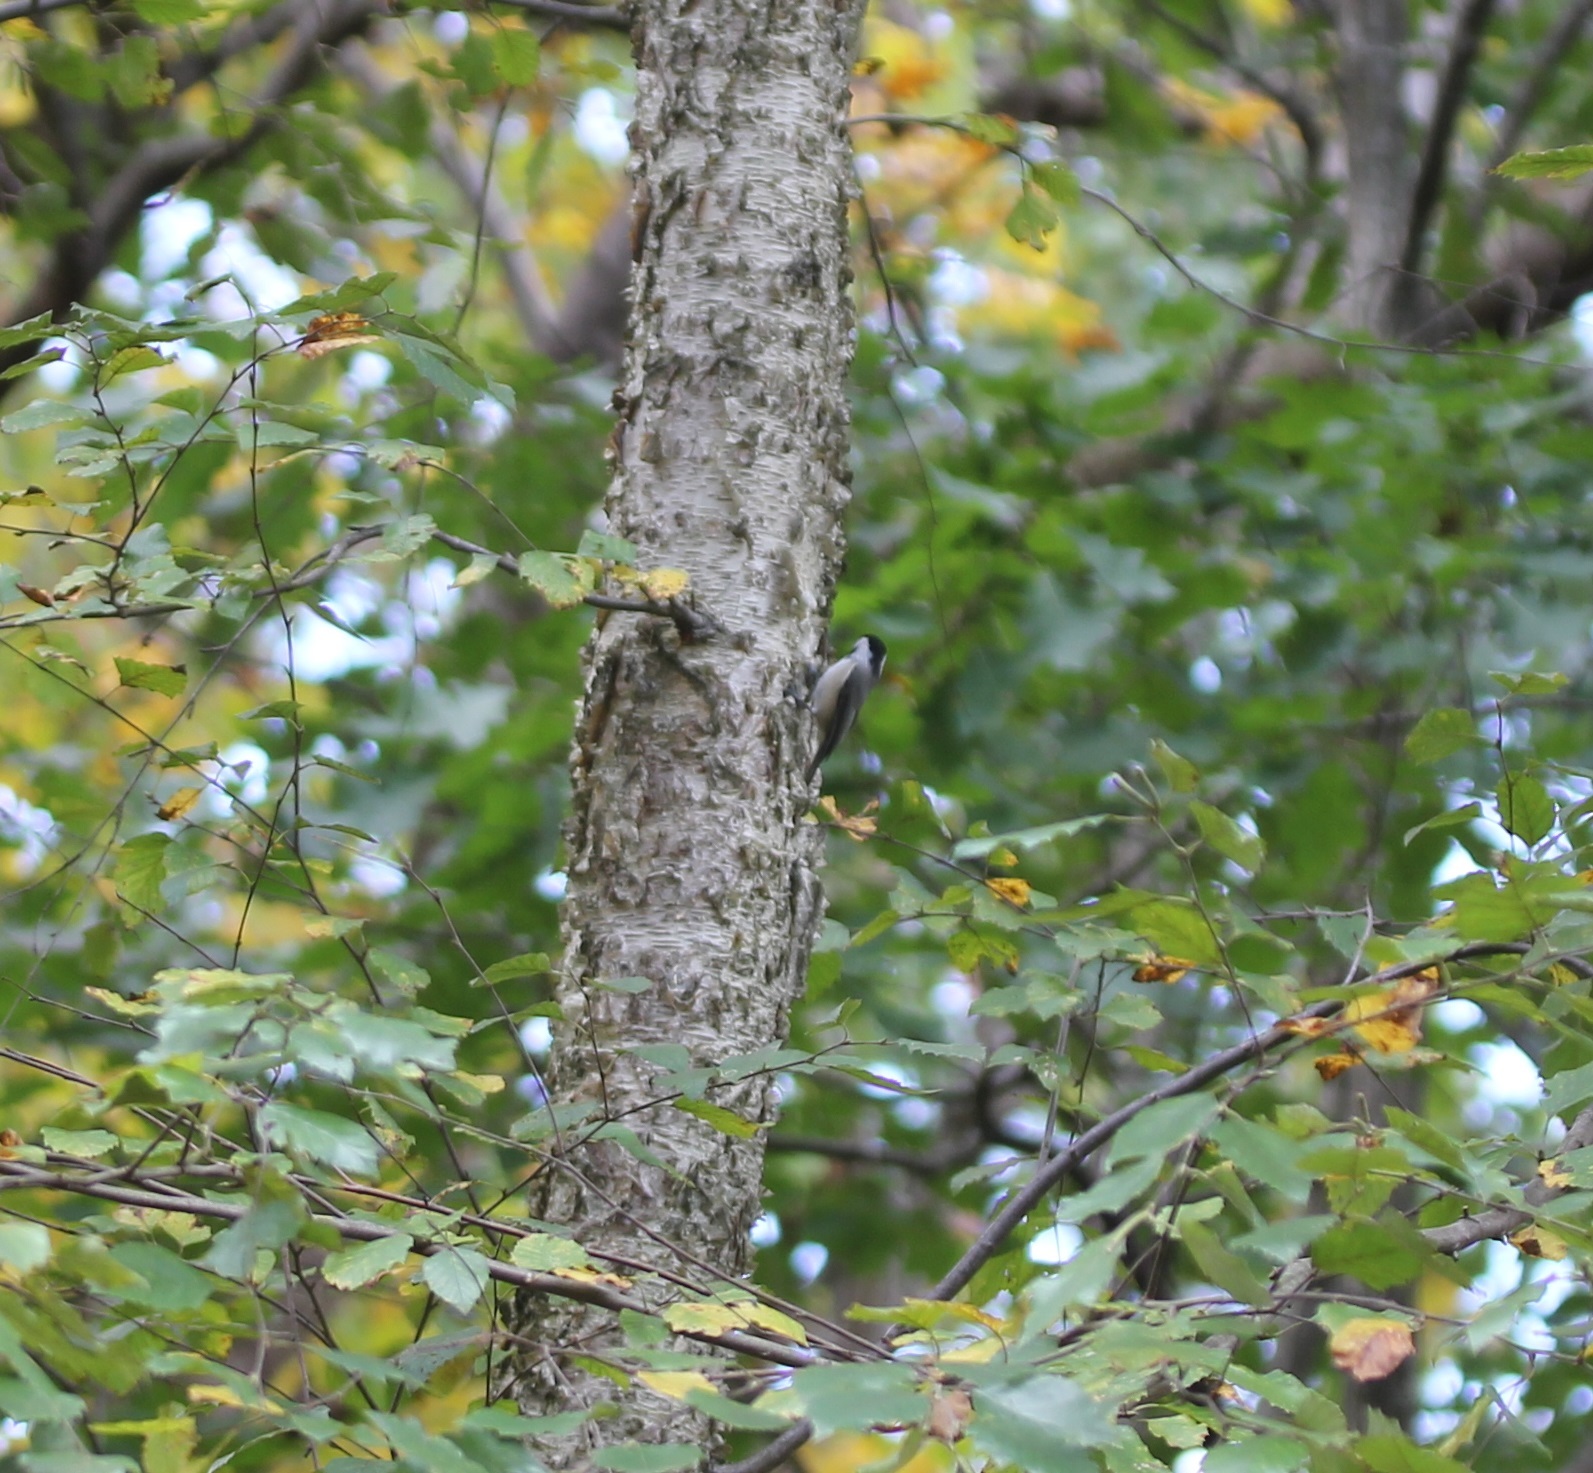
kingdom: Animalia
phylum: Chordata
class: Aves
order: Passeriformes
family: Paridae
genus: Poecile
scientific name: Poecile carolinensis
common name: Carolina chickadee
